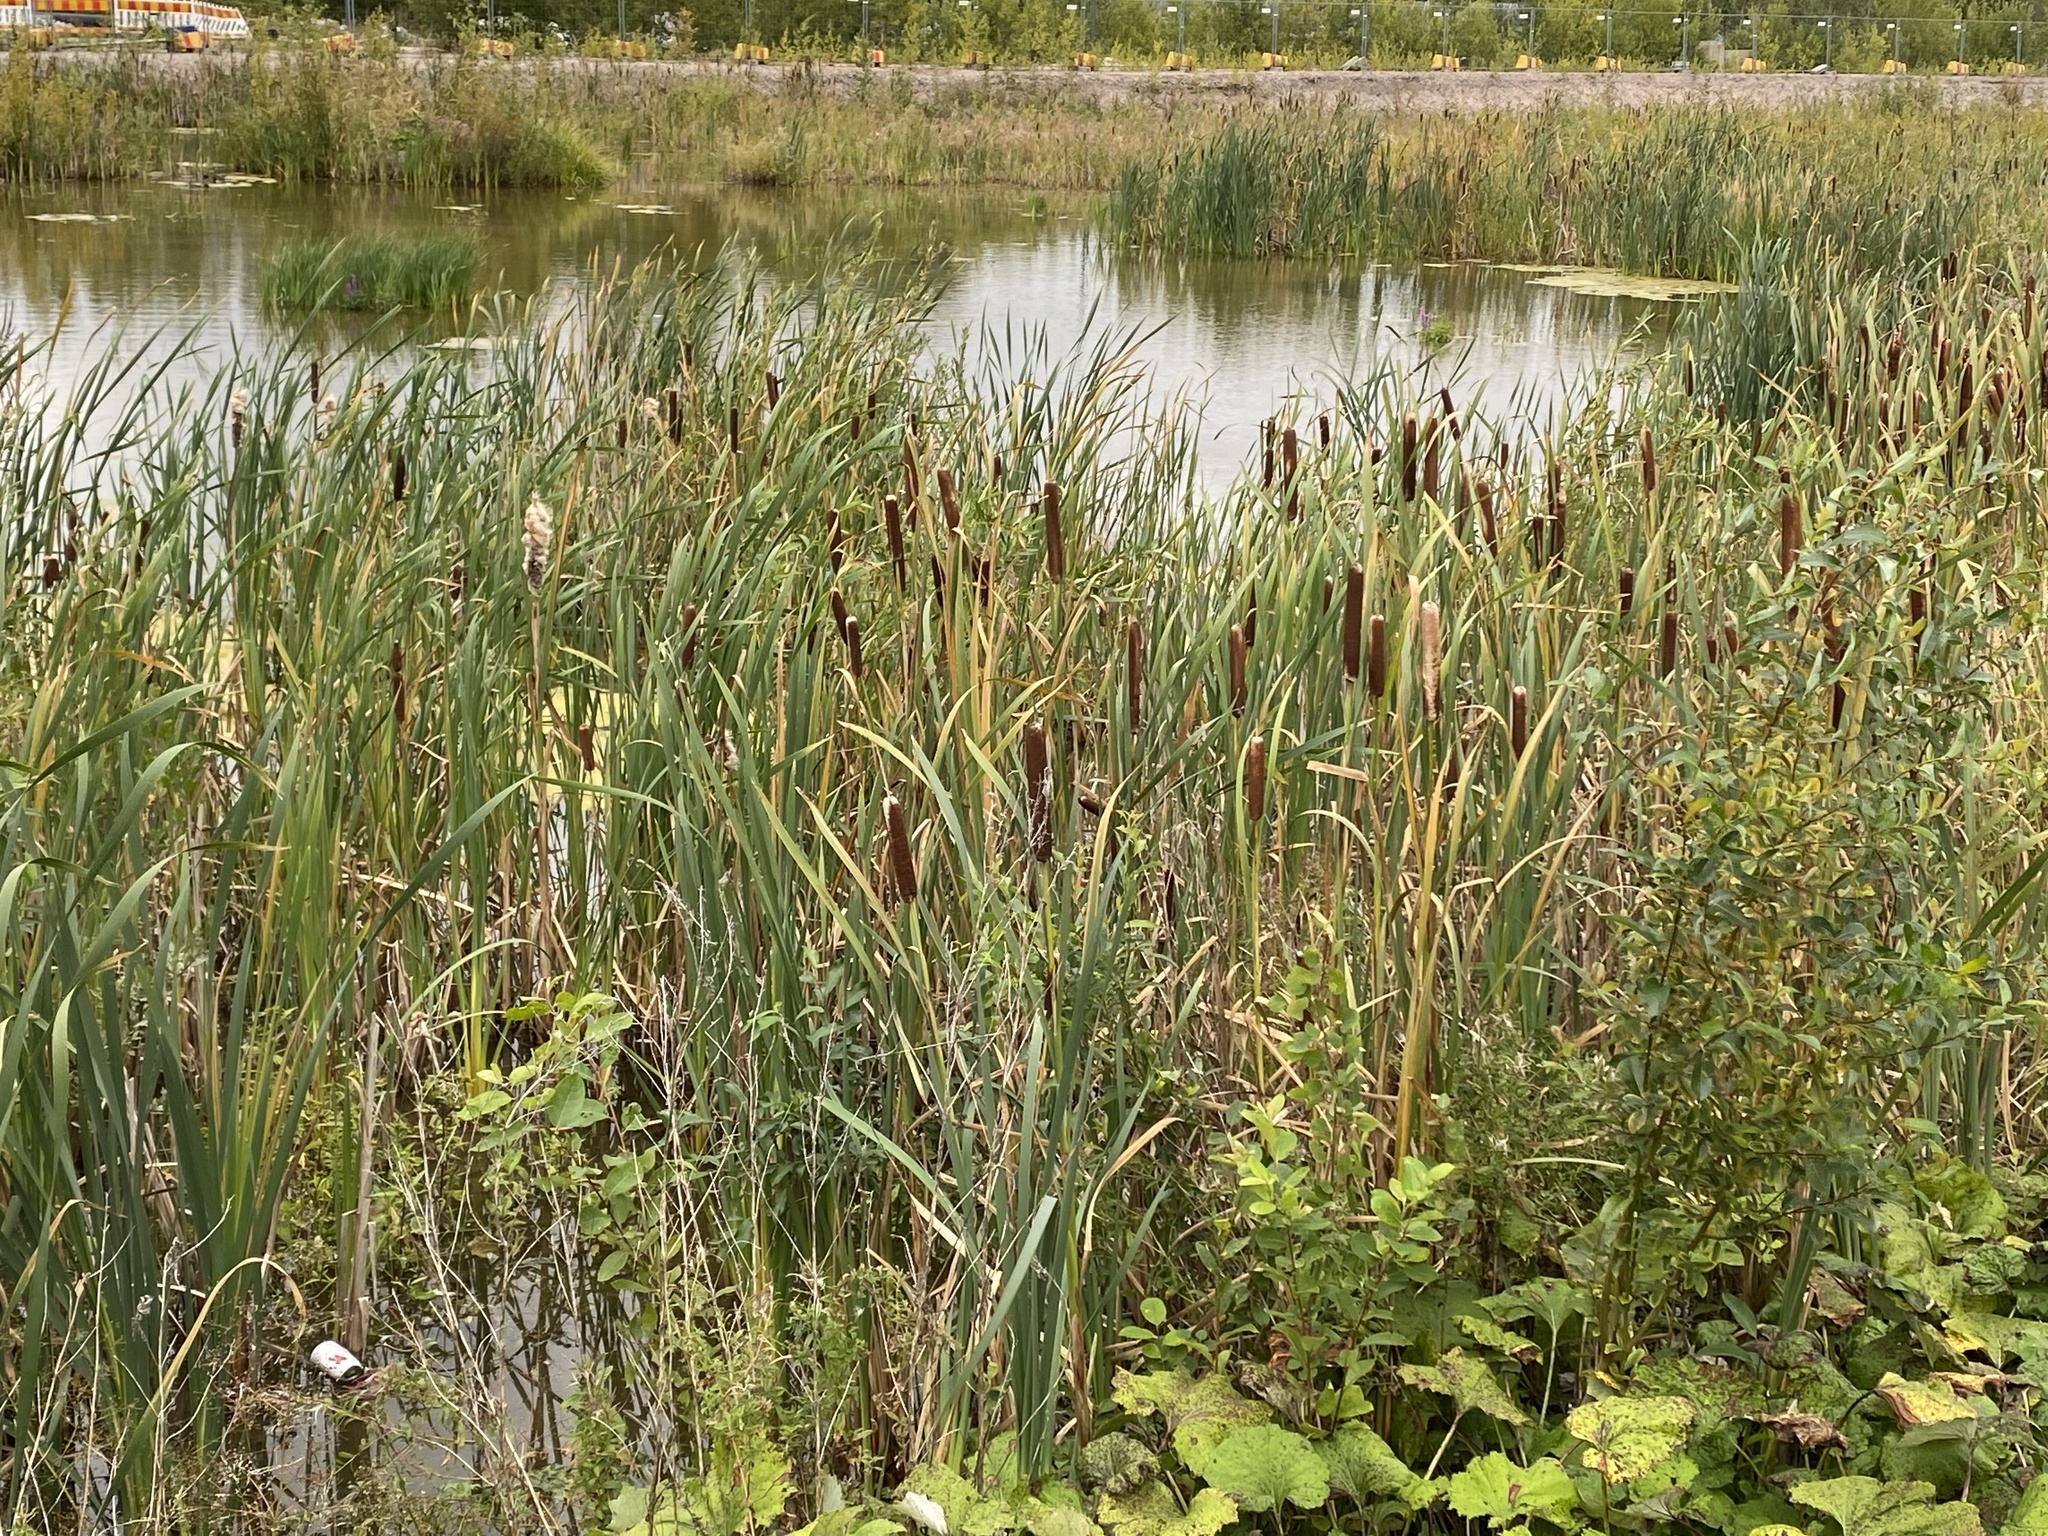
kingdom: Plantae
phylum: Tracheophyta
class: Liliopsida
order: Poales
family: Typhaceae
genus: Typha
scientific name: Typha latifolia
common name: Broadleaf cattail
